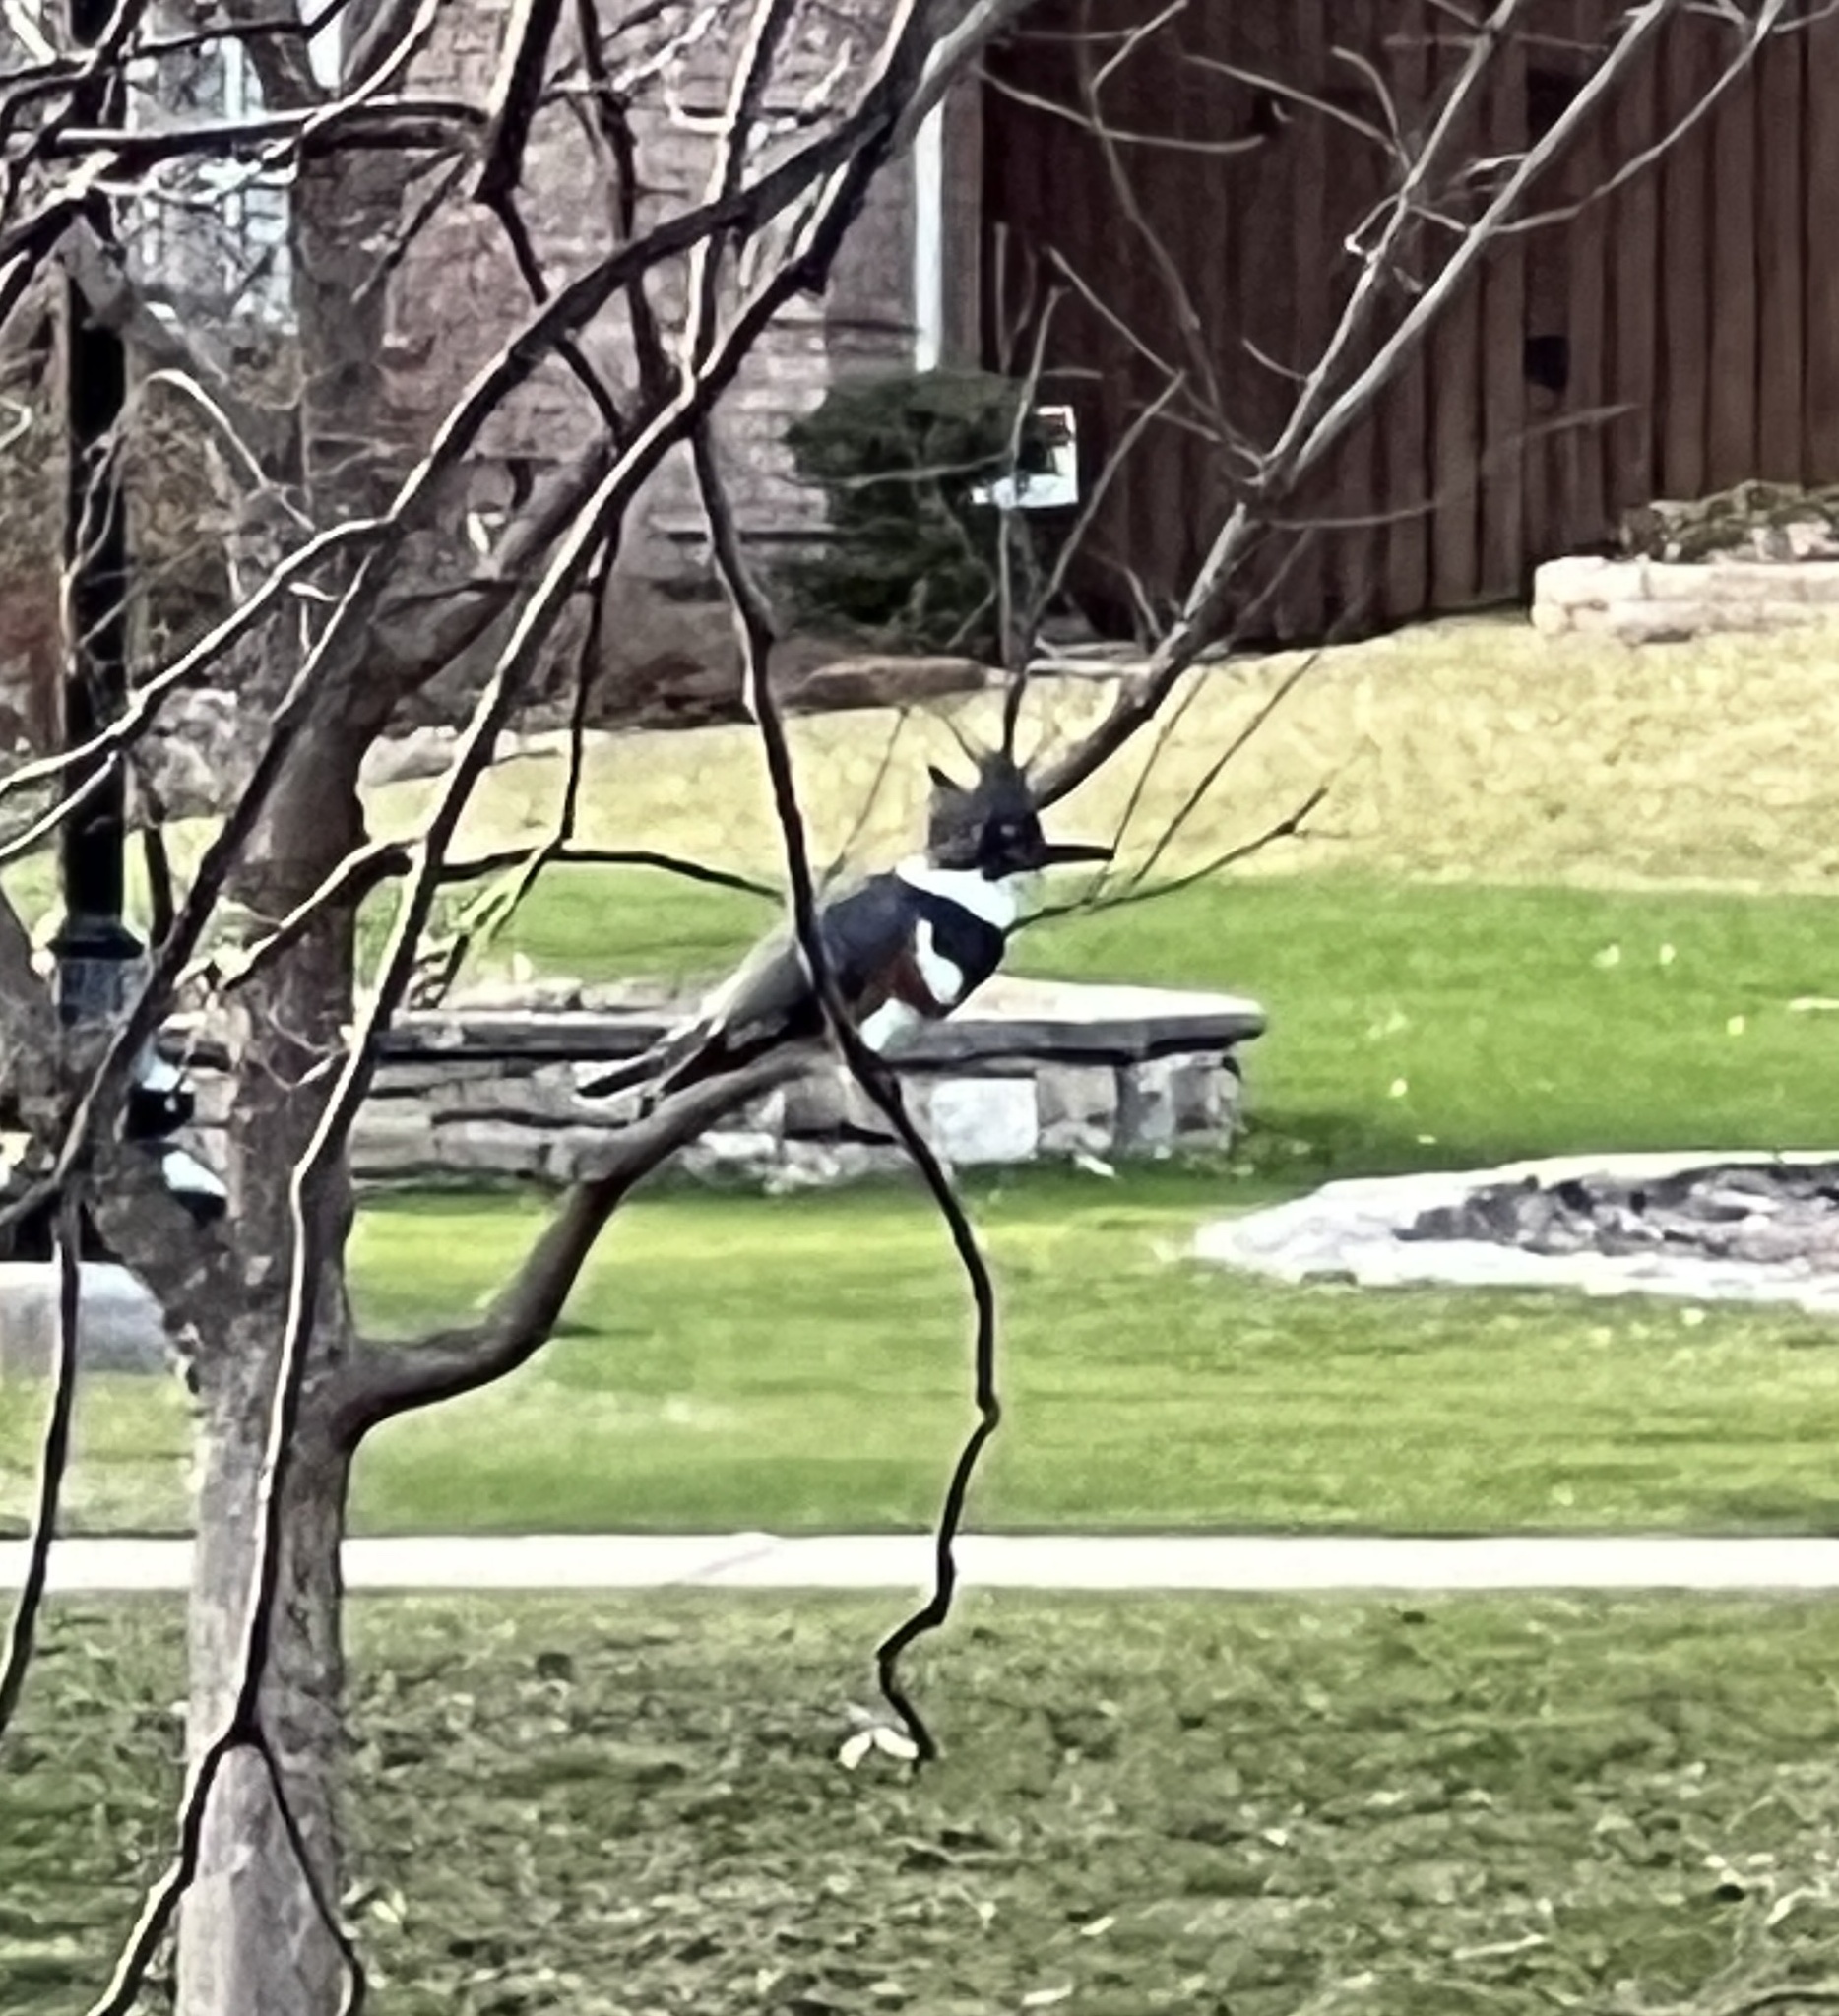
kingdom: Animalia
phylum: Chordata
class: Aves
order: Coraciiformes
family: Alcedinidae
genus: Megaceryle
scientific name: Megaceryle alcyon
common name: Belted kingfisher
